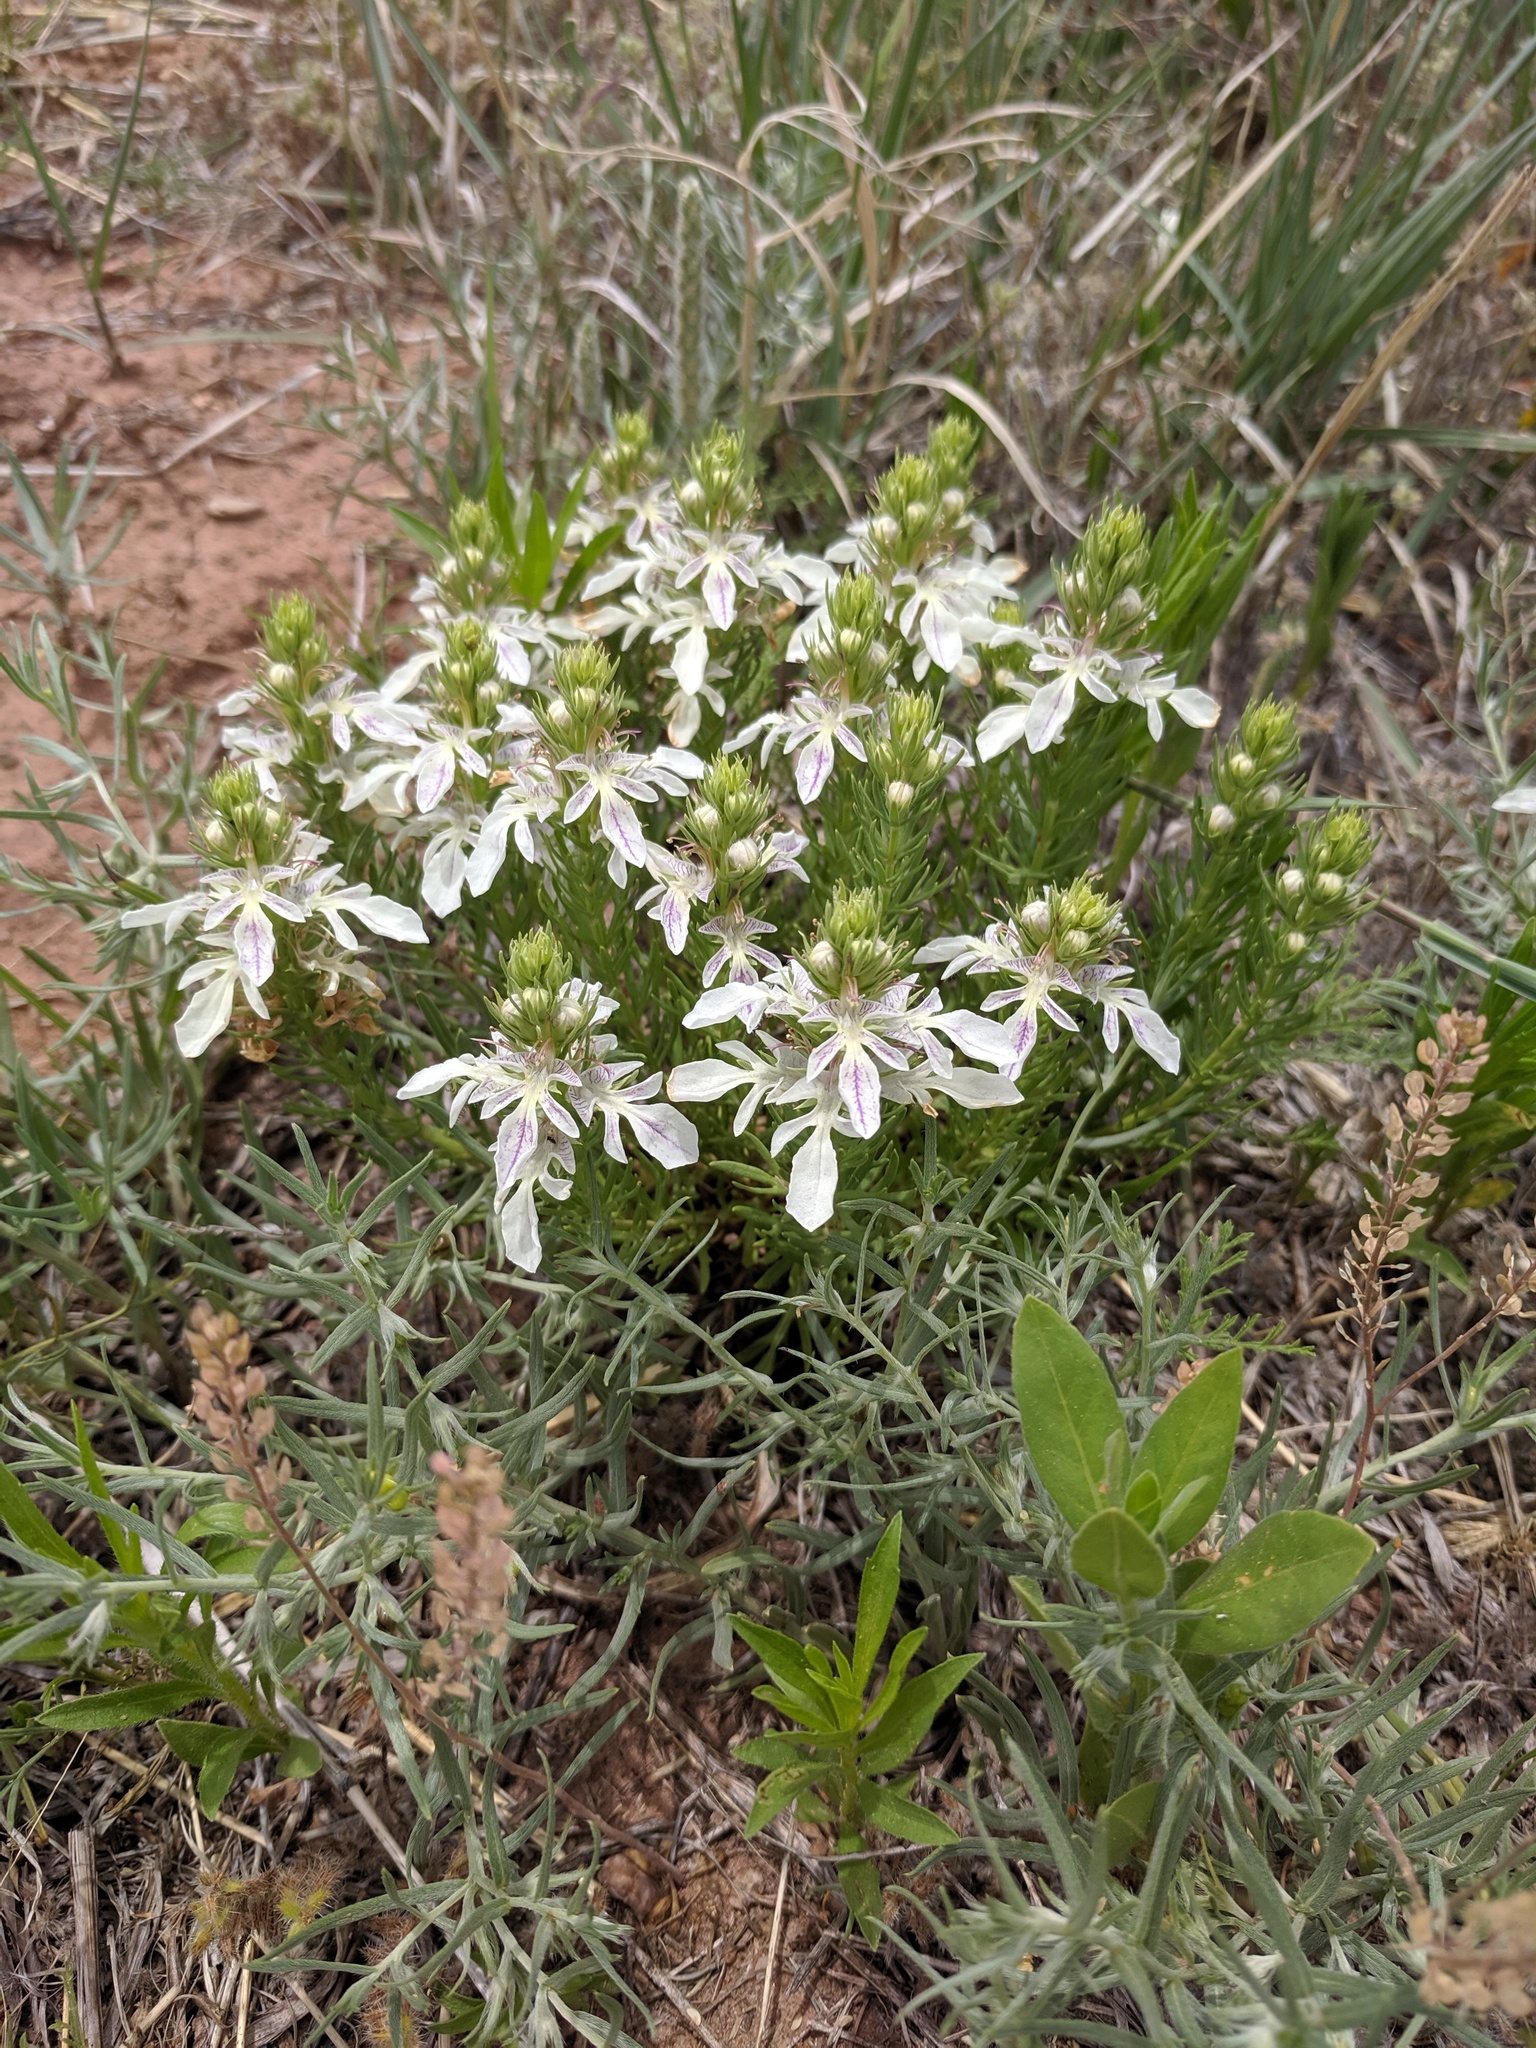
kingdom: Plantae
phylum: Tracheophyta
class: Magnoliopsida
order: Lamiales
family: Lamiaceae
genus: Teucrium
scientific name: Teucrium laciniatum
